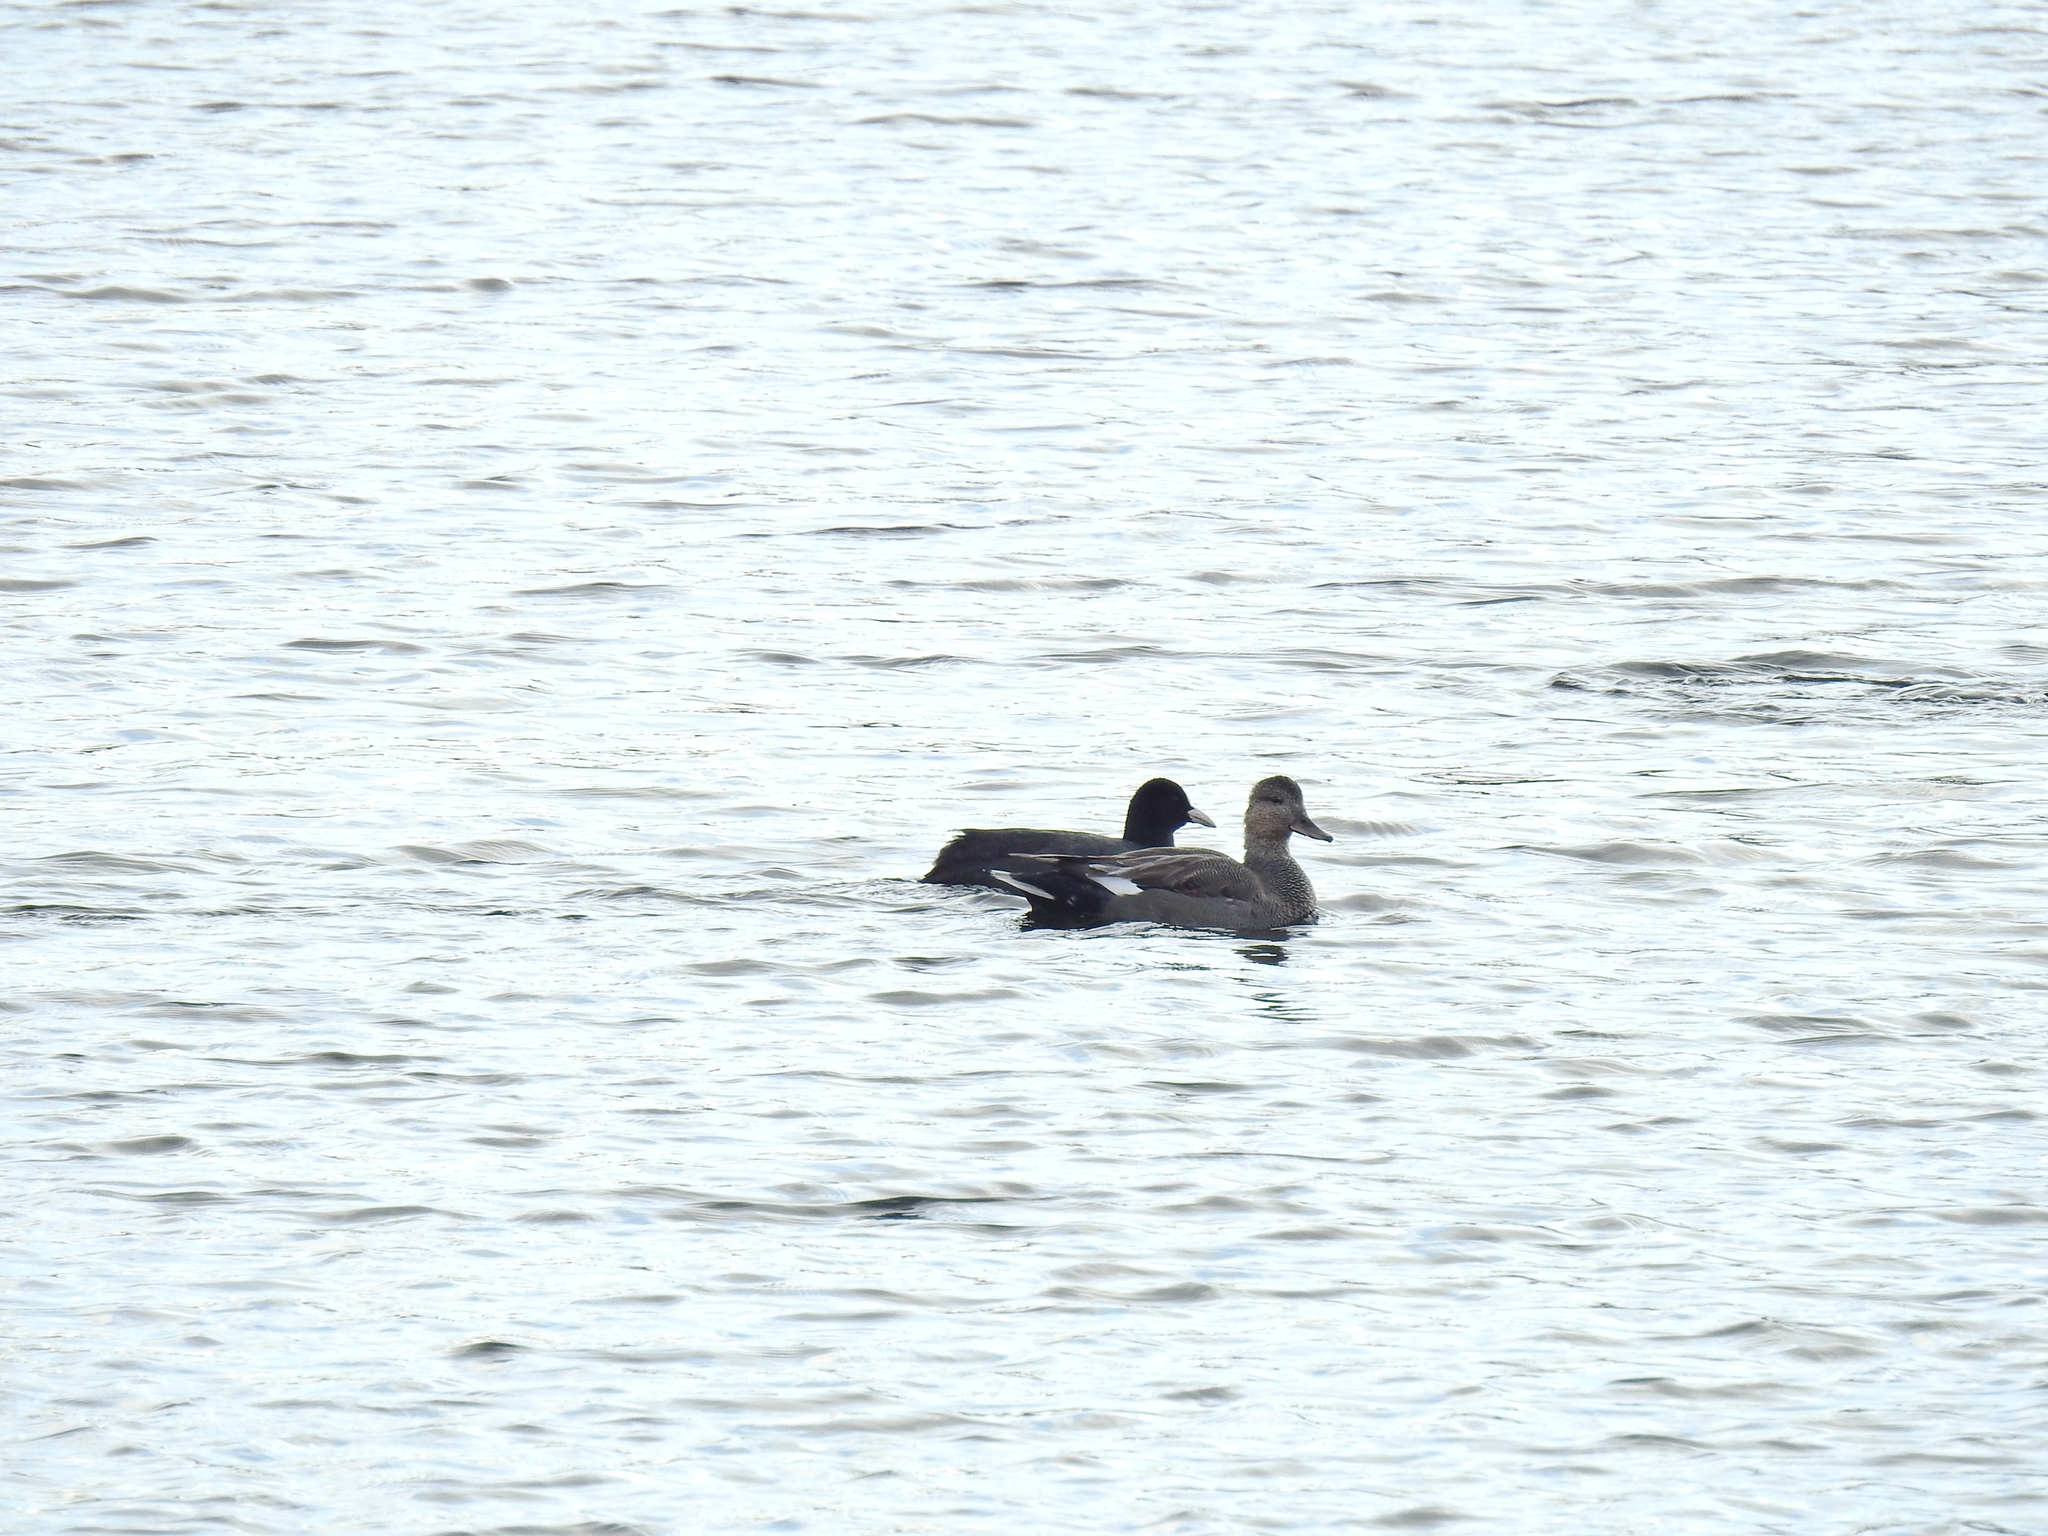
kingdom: Animalia
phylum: Chordata
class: Aves
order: Anseriformes
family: Anatidae
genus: Mareca
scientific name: Mareca strepera
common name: Gadwall
